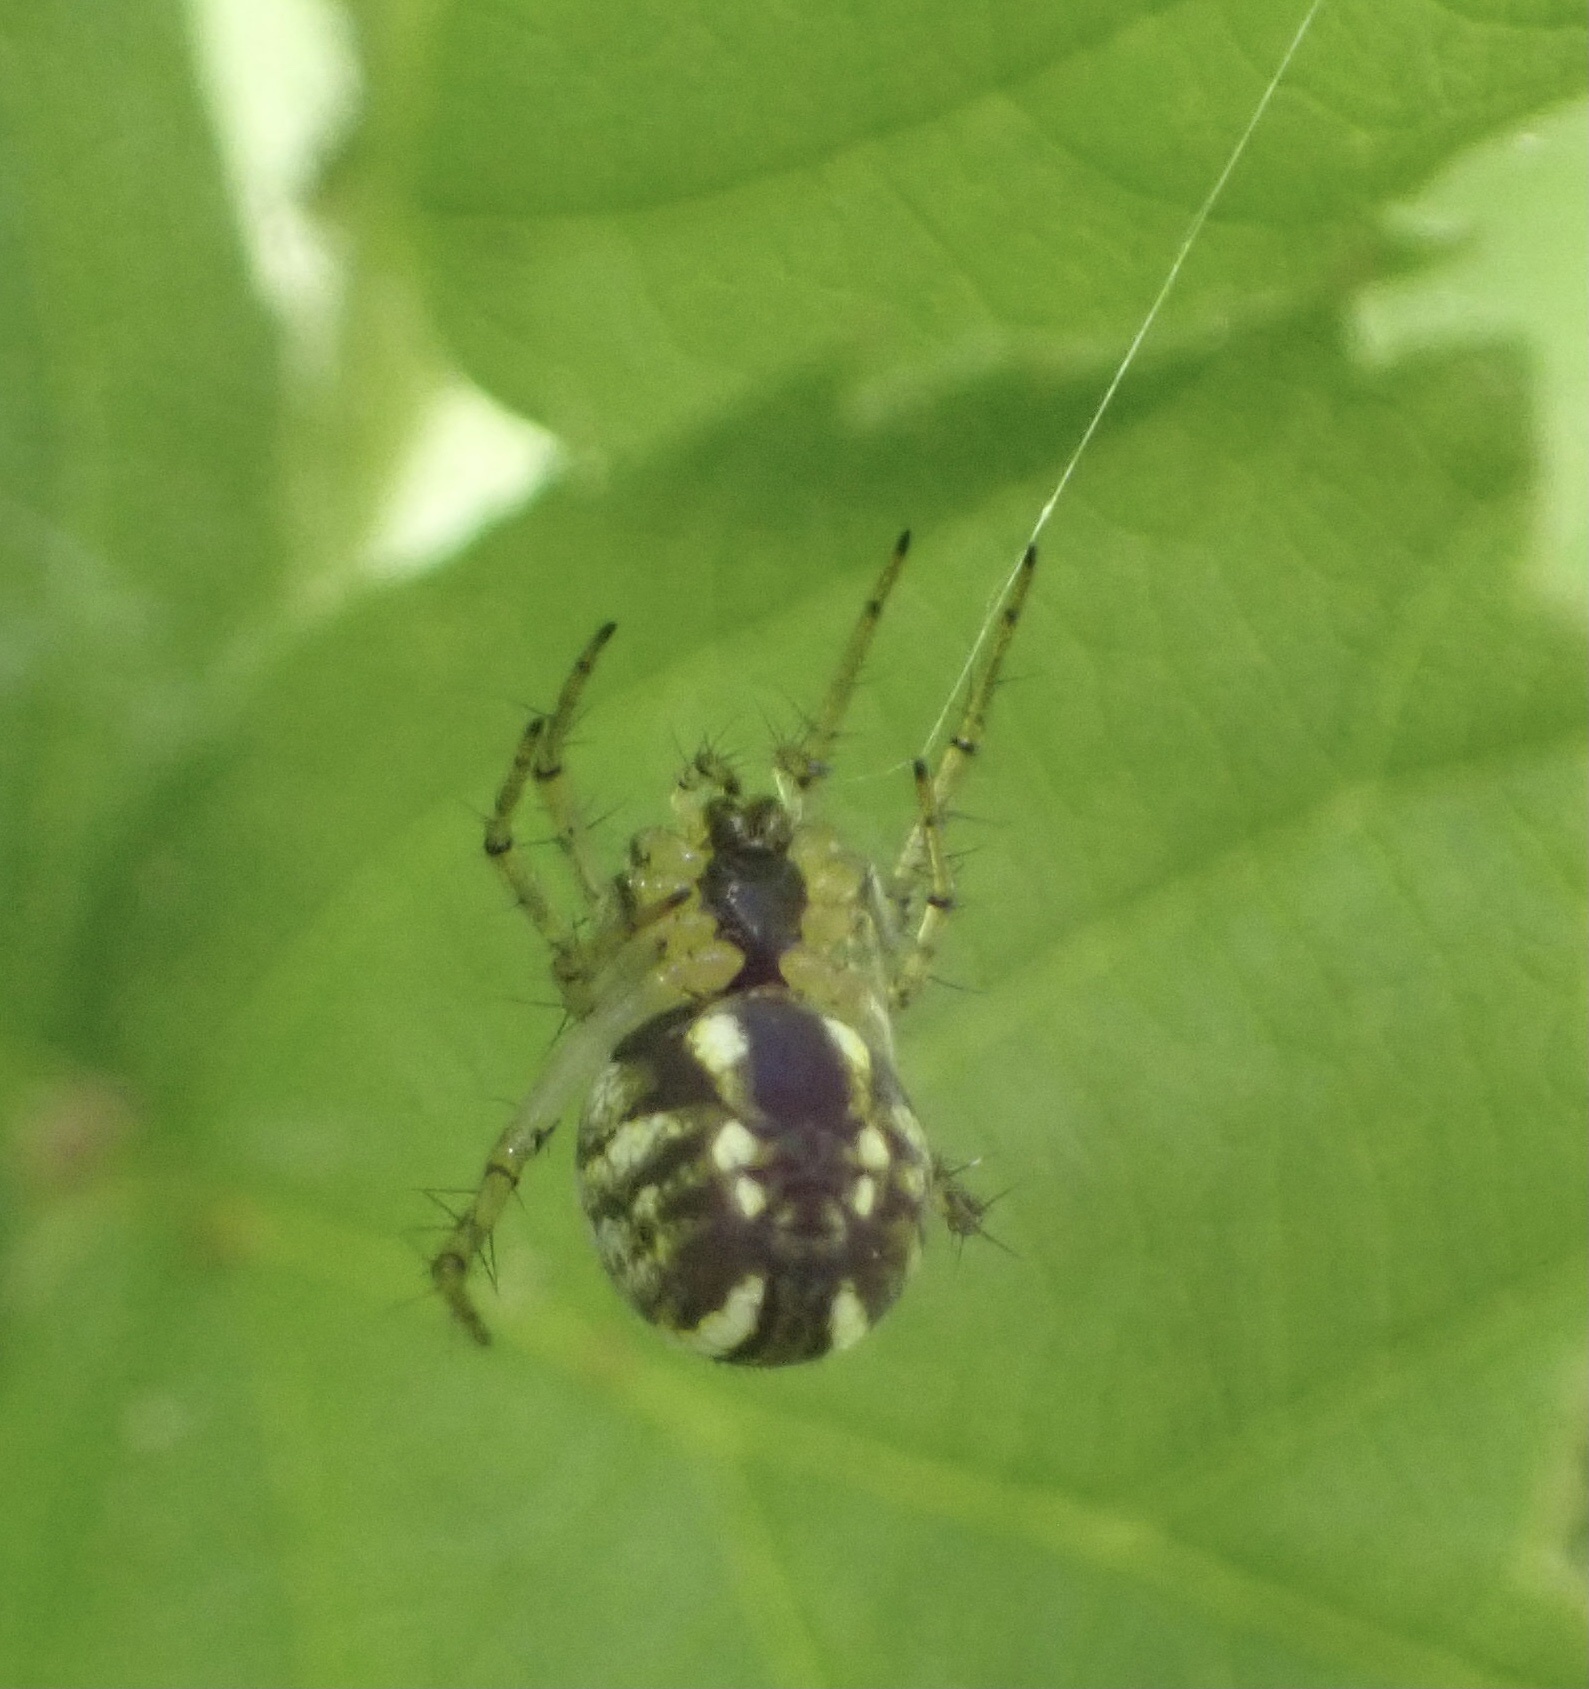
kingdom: Animalia
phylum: Arthropoda
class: Arachnida
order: Araneae
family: Araneidae
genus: Mangora
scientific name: Mangora acalypha
